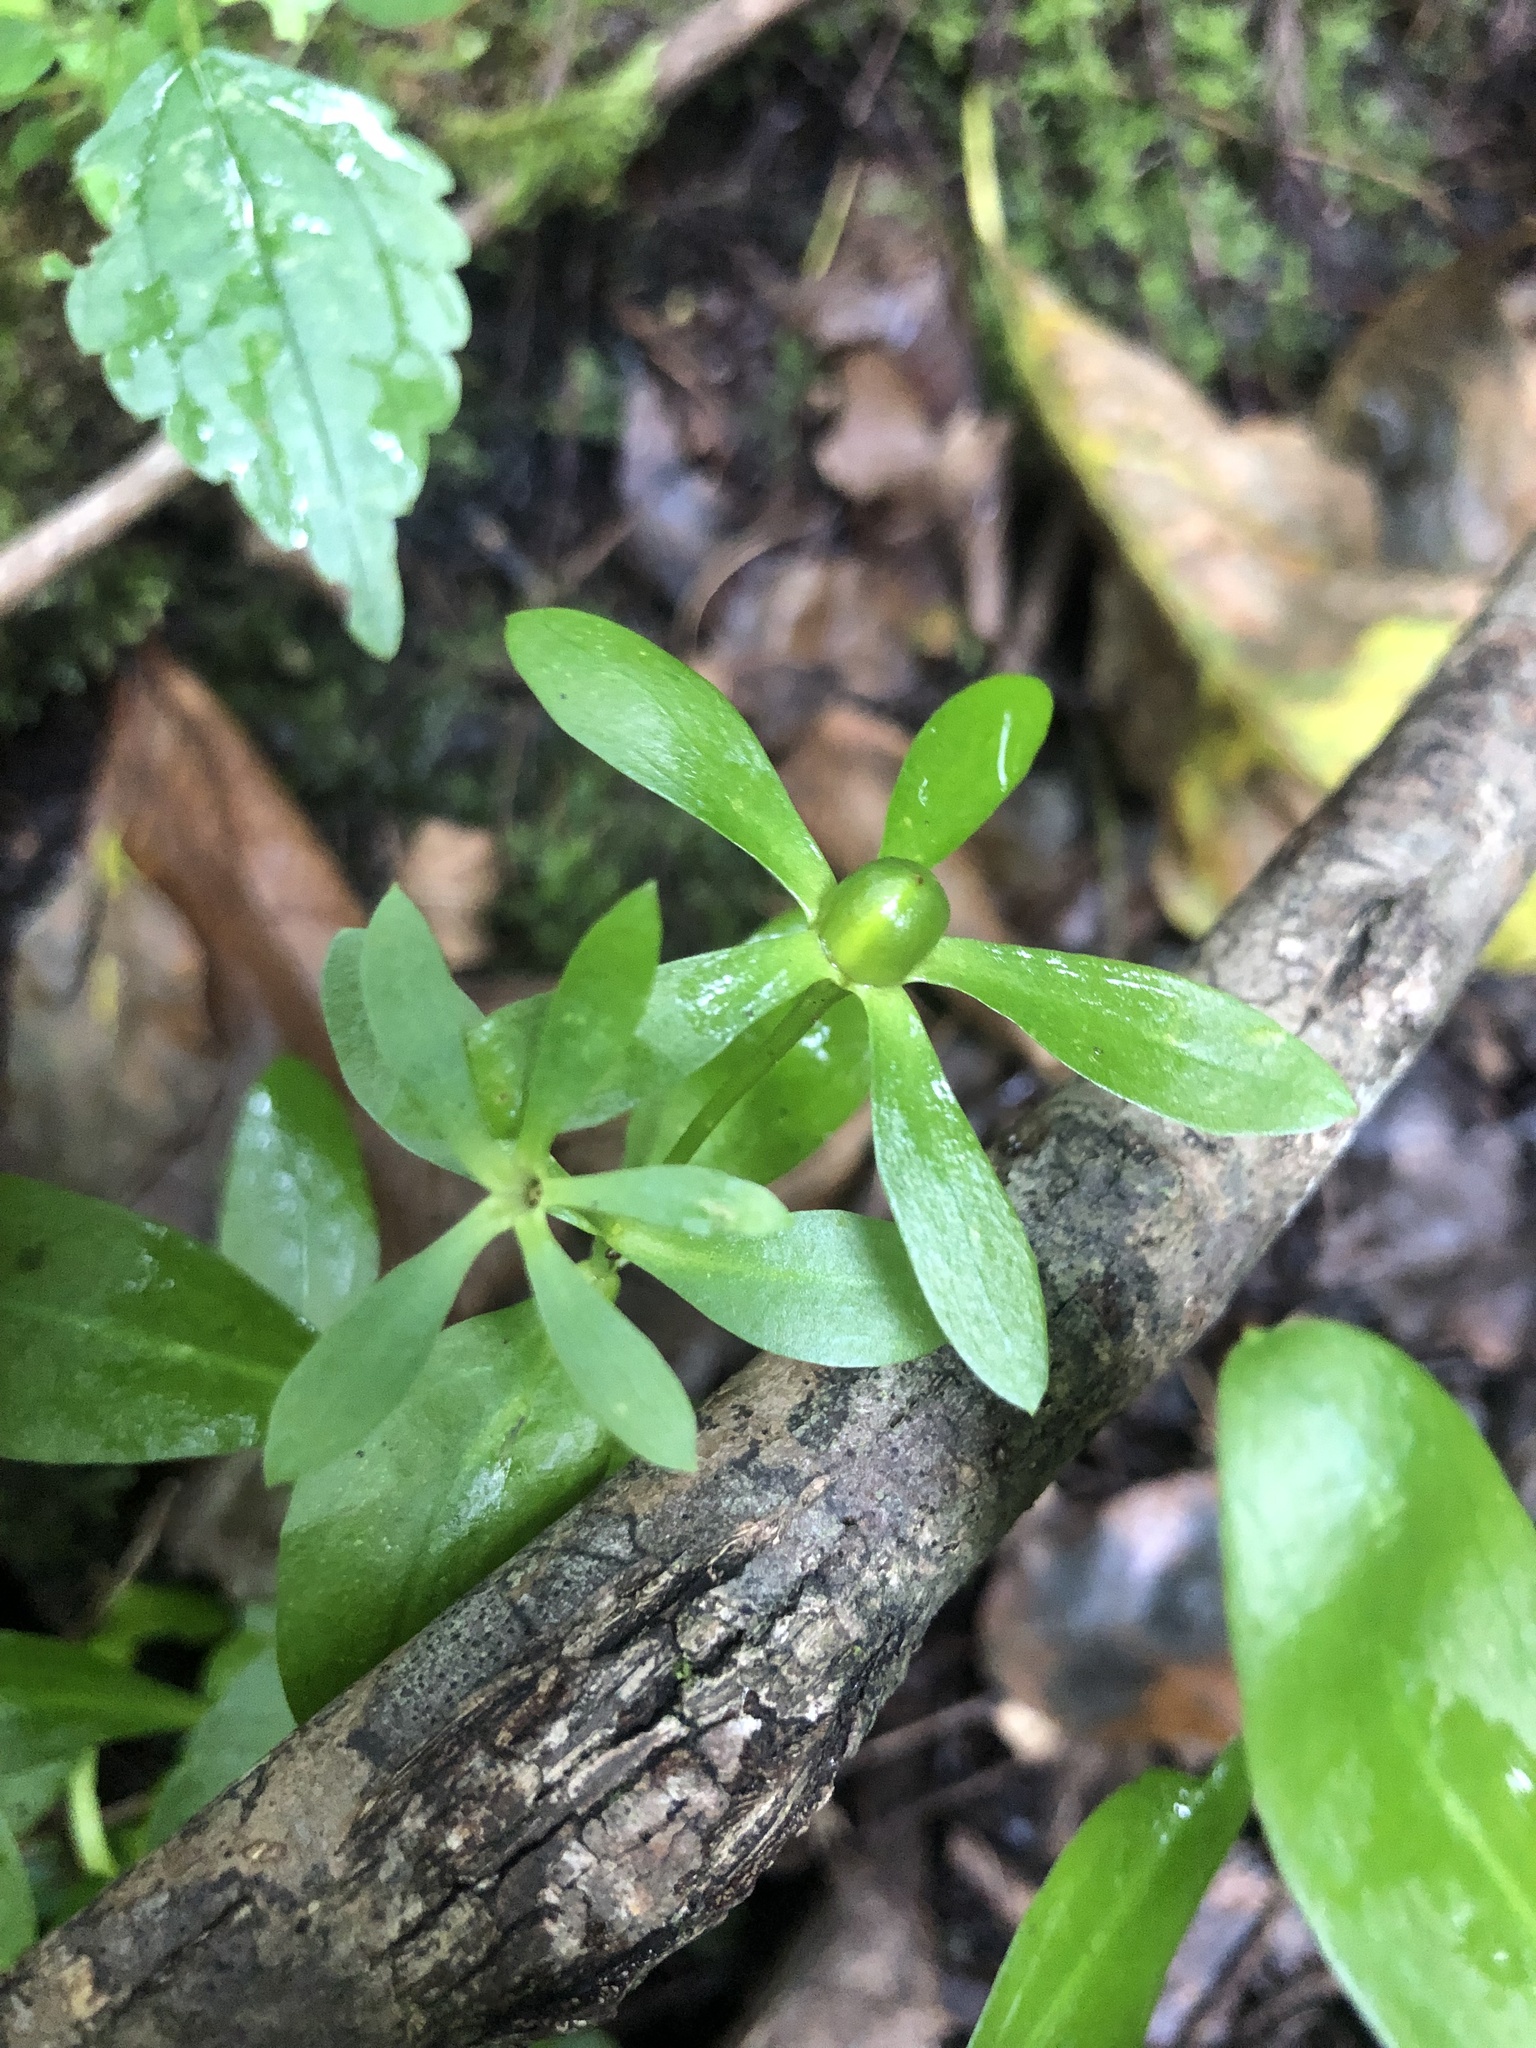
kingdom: Plantae
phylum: Tracheophyta
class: Magnoliopsida
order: Gentianales
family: Gentianaceae
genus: Sabatia
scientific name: Sabatia calycina
